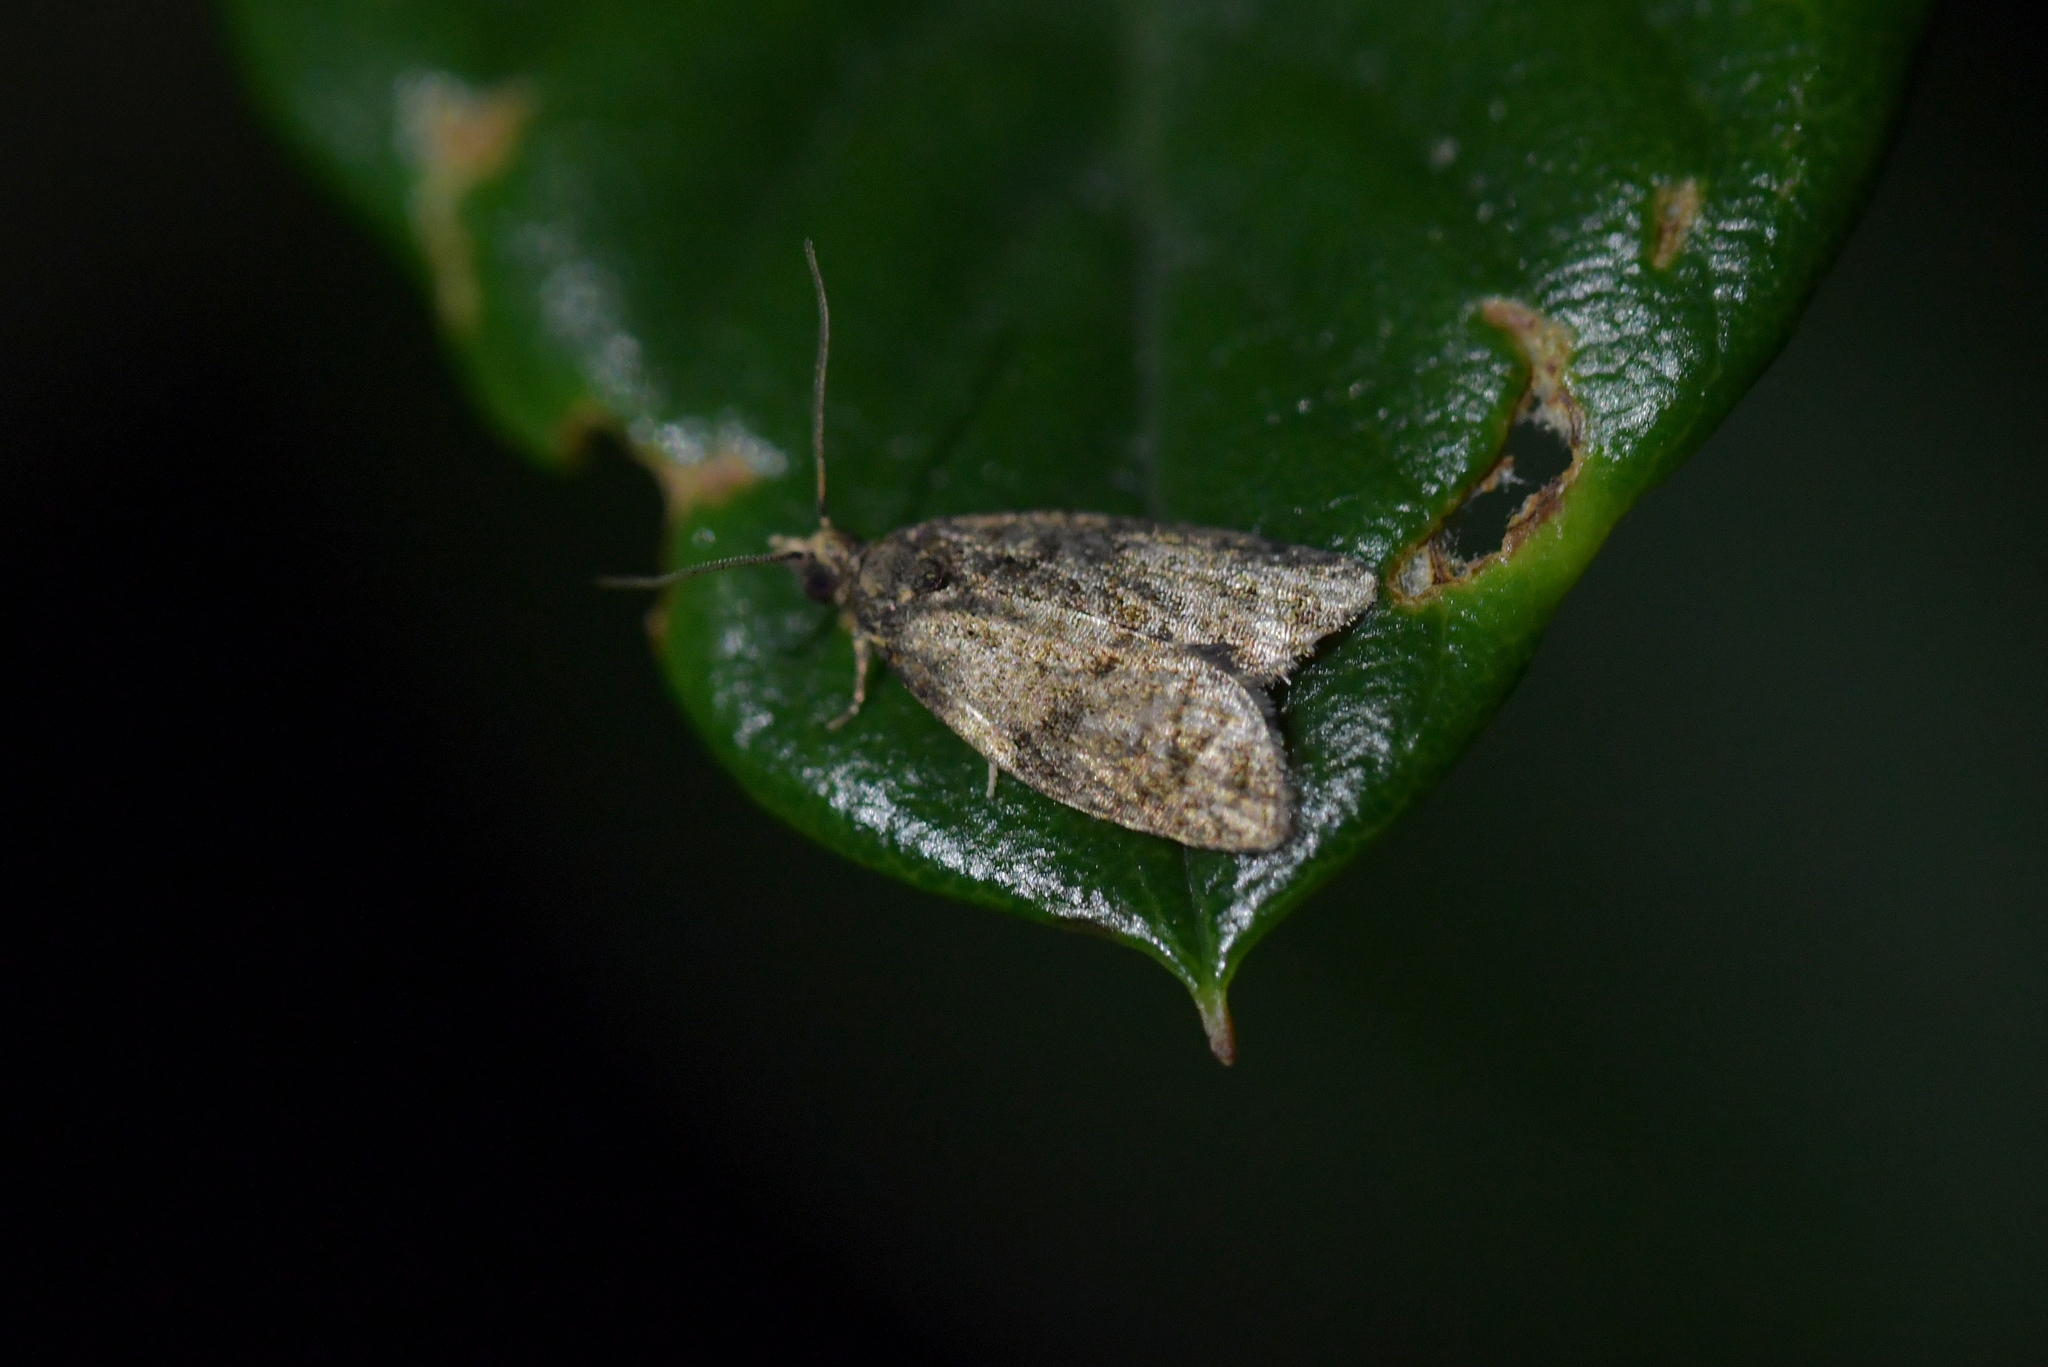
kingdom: Animalia
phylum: Arthropoda
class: Insecta
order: Lepidoptera
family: Tortricidae
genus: Capua
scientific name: Capua intractana
